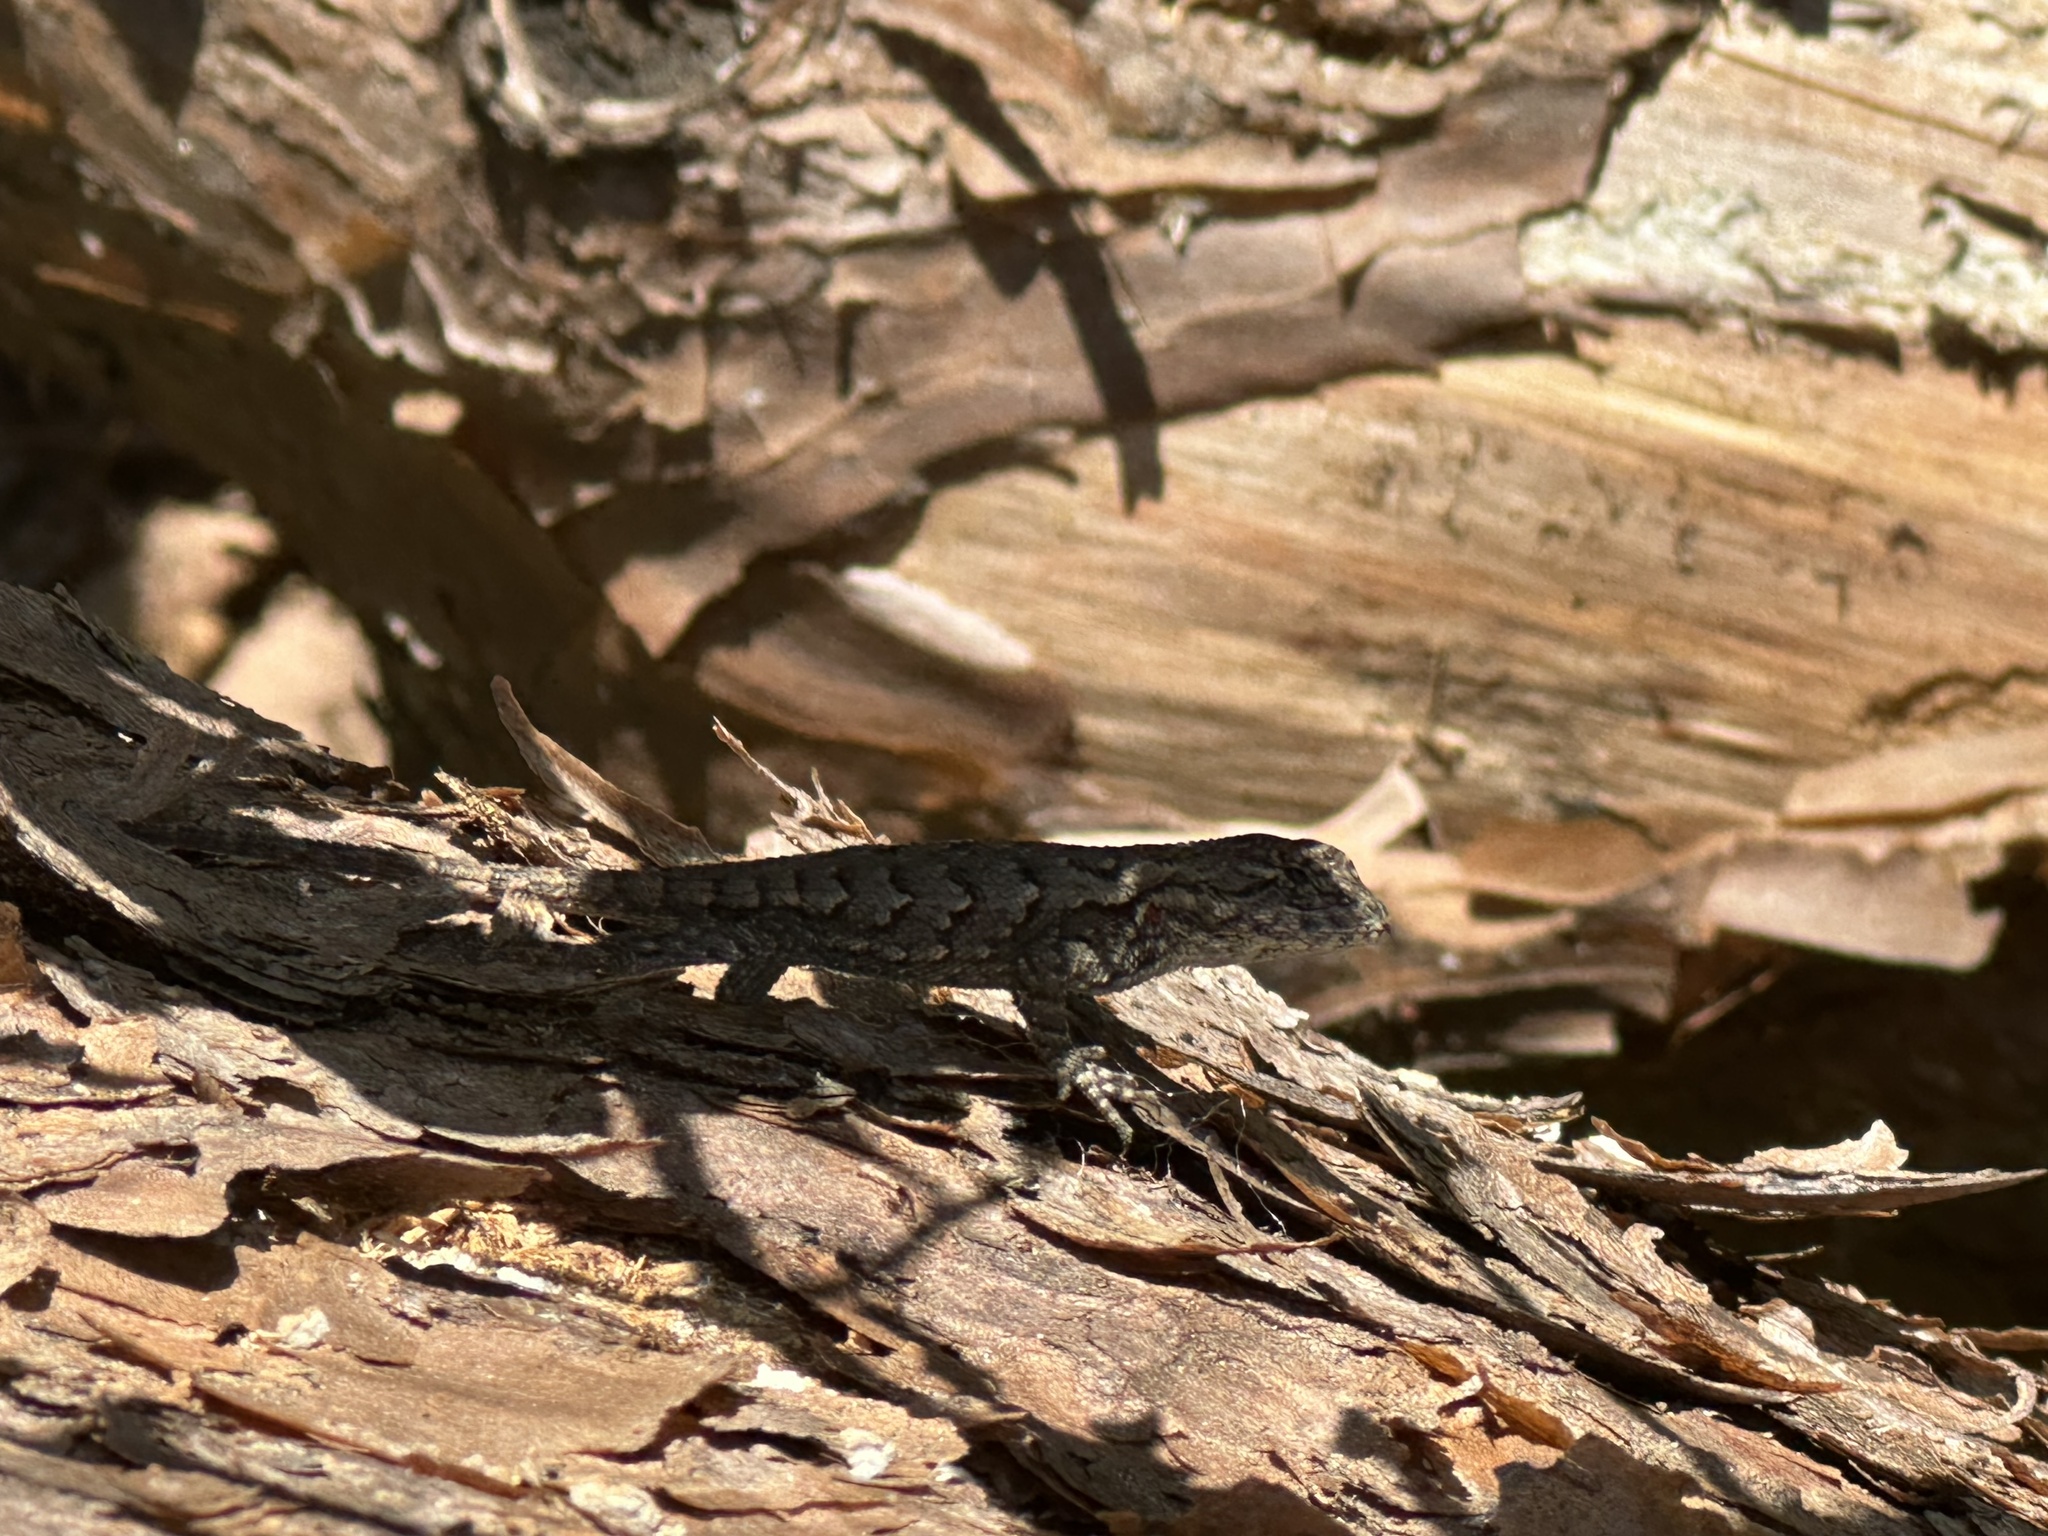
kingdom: Animalia
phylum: Chordata
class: Squamata
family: Phrynosomatidae
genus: Sceloporus
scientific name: Sceloporus undulatus
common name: Eastern fence lizard
